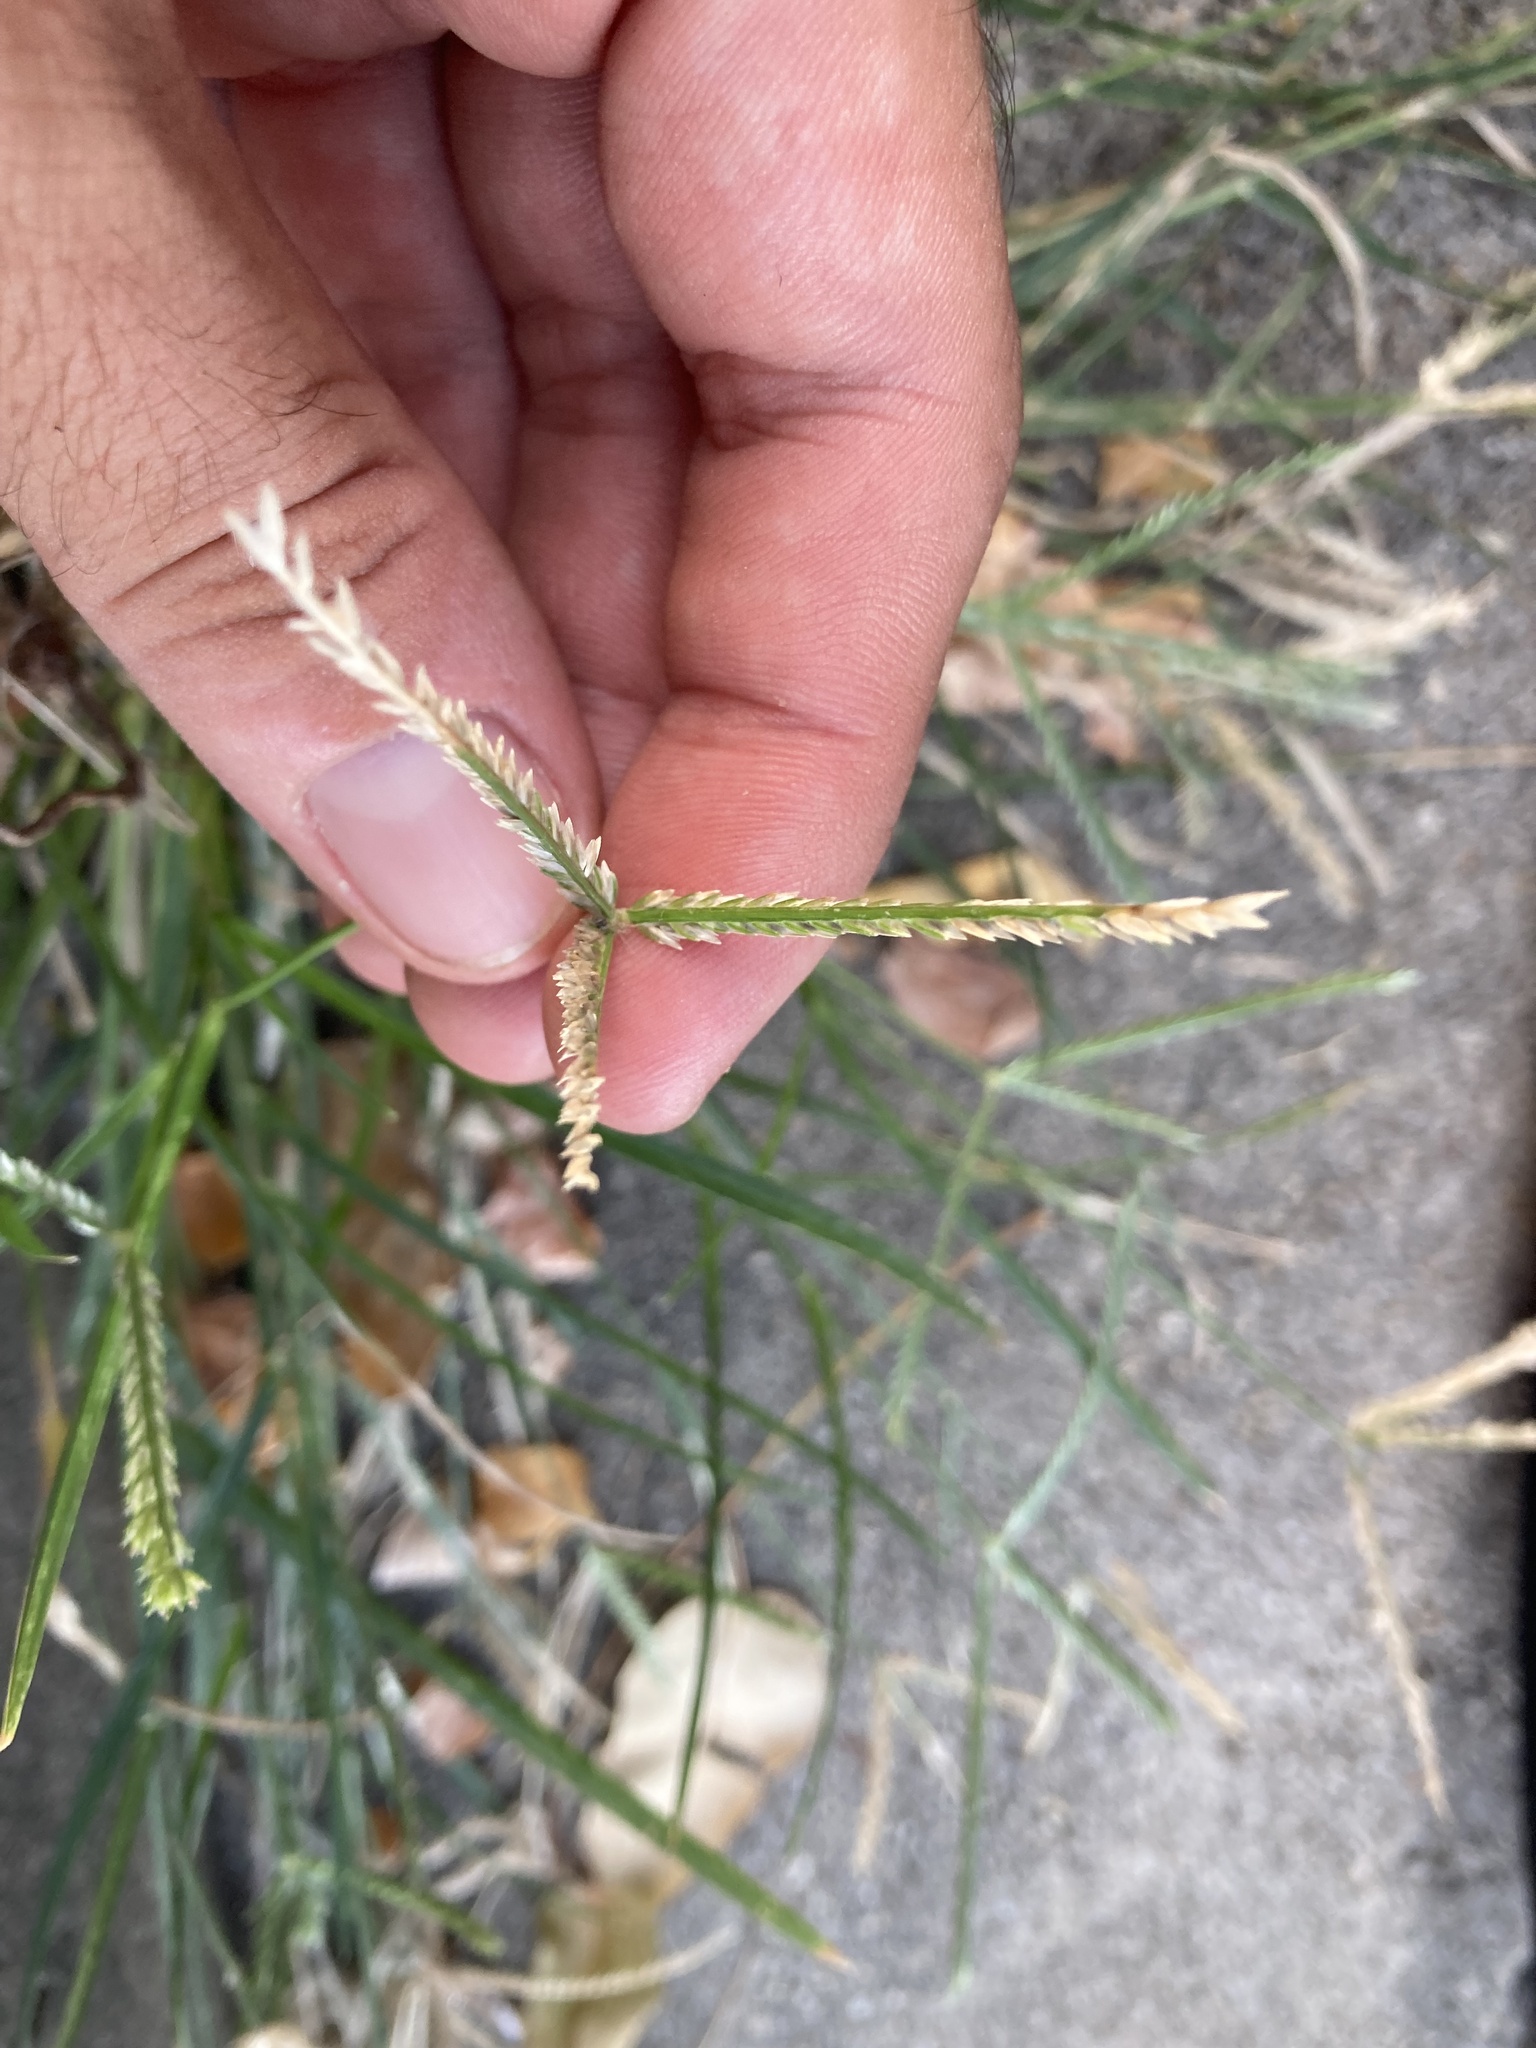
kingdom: Plantae
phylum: Tracheophyta
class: Liliopsida
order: Poales
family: Poaceae
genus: Eleusine
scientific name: Eleusine indica
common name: Yard-grass
